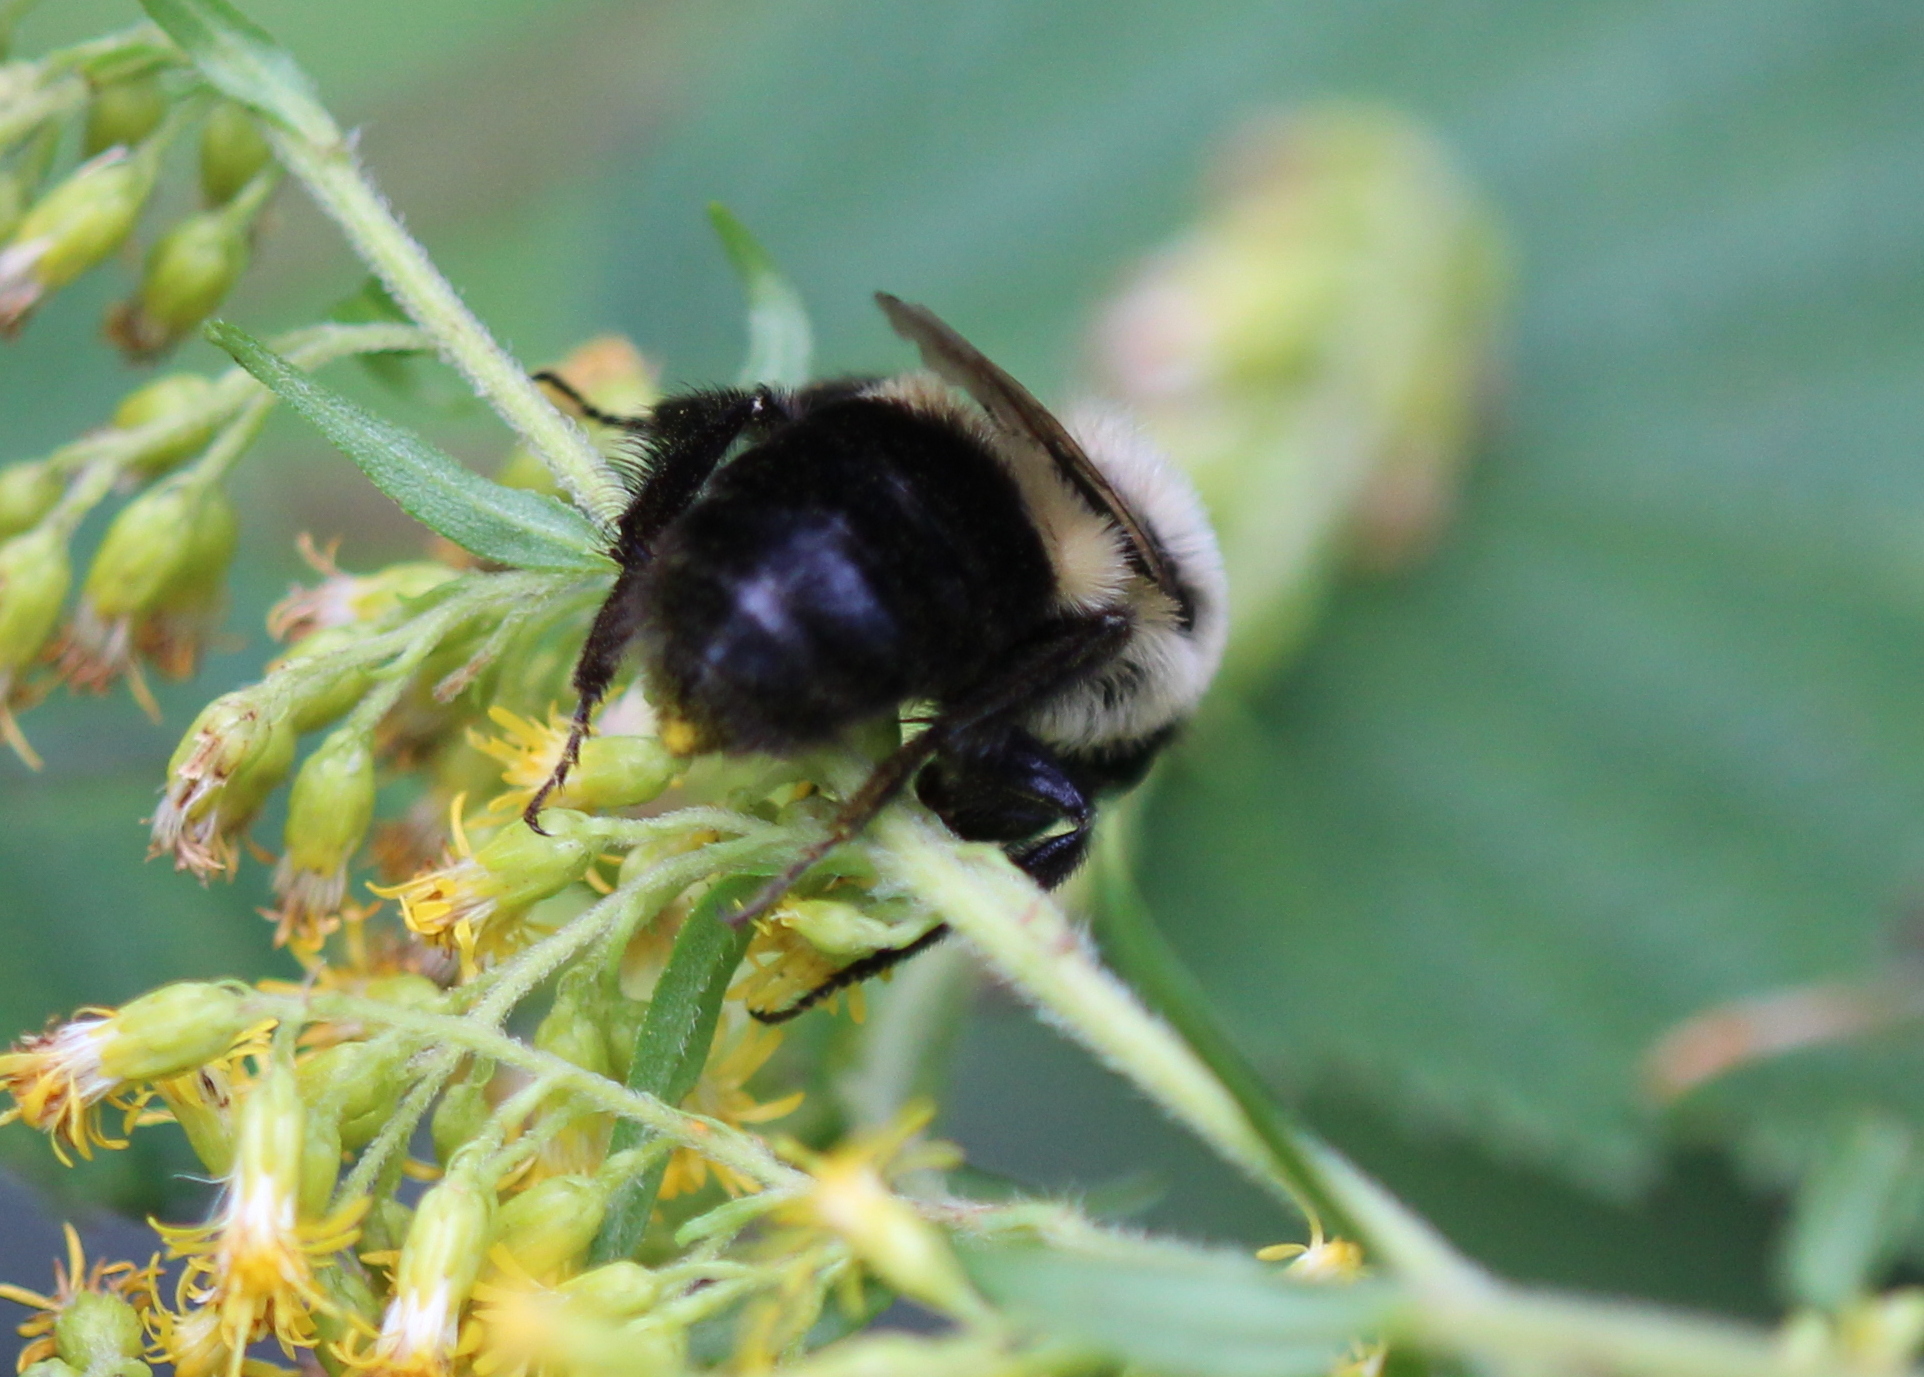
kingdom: Animalia
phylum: Arthropoda
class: Insecta
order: Hymenoptera
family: Apidae
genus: Bombus
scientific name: Bombus impatiens
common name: Common eastern bumble bee
